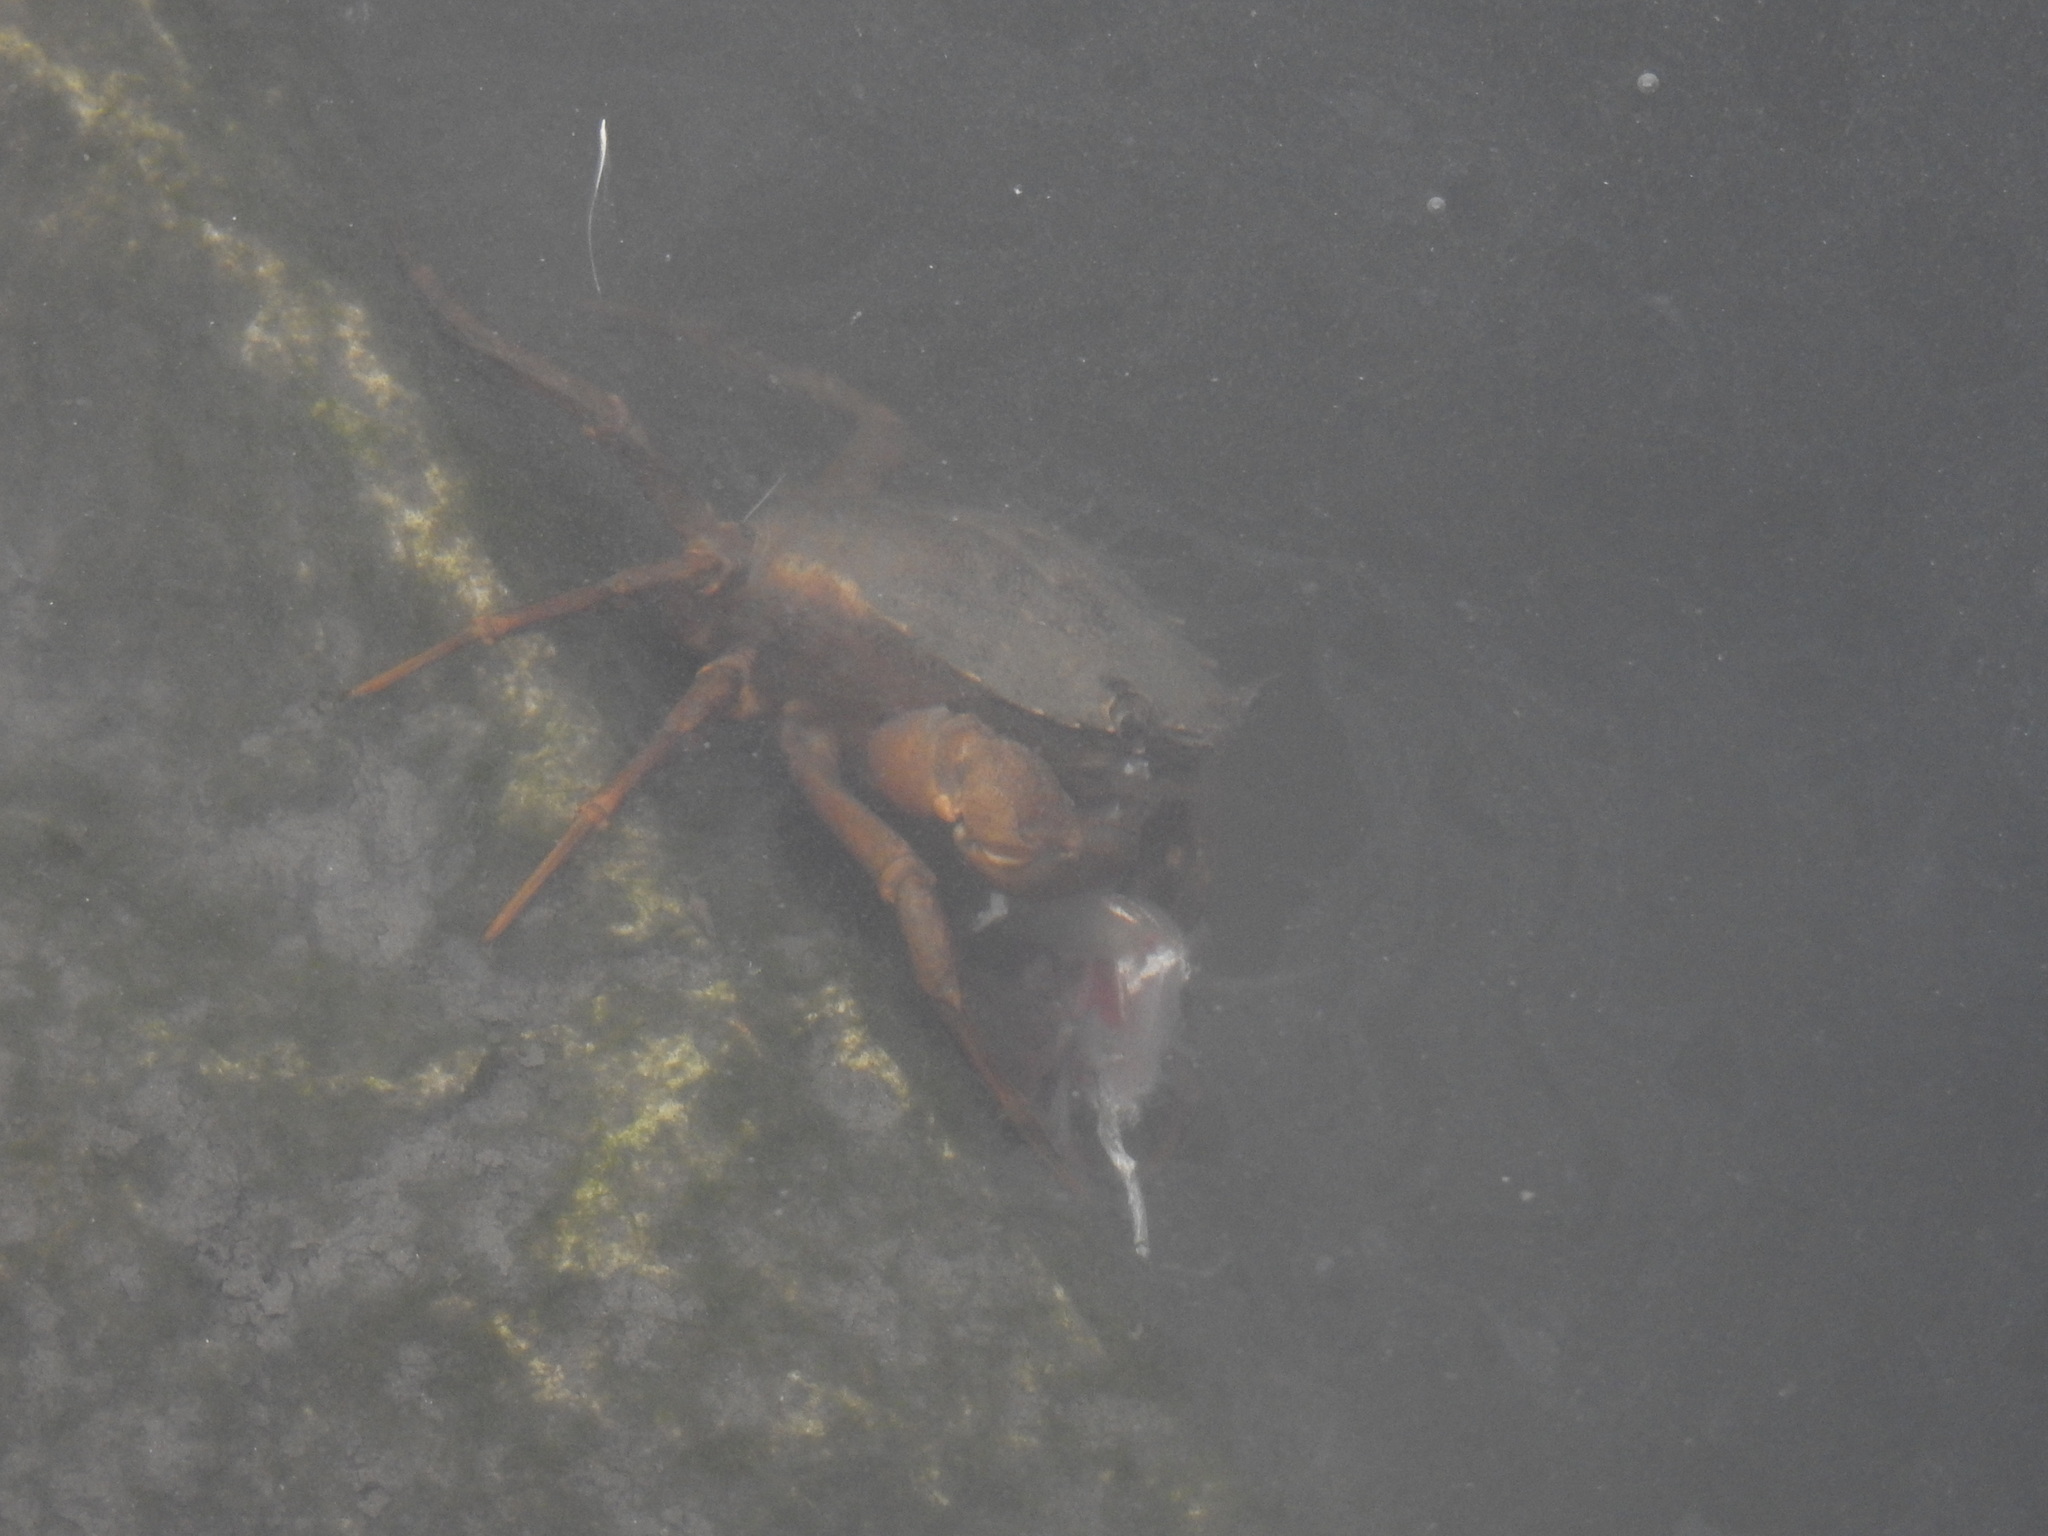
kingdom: Animalia
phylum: Arthropoda
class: Malacostraca
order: Decapoda
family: Carcinidae
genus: Carcinus
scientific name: Carcinus maenas
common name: European green crab
